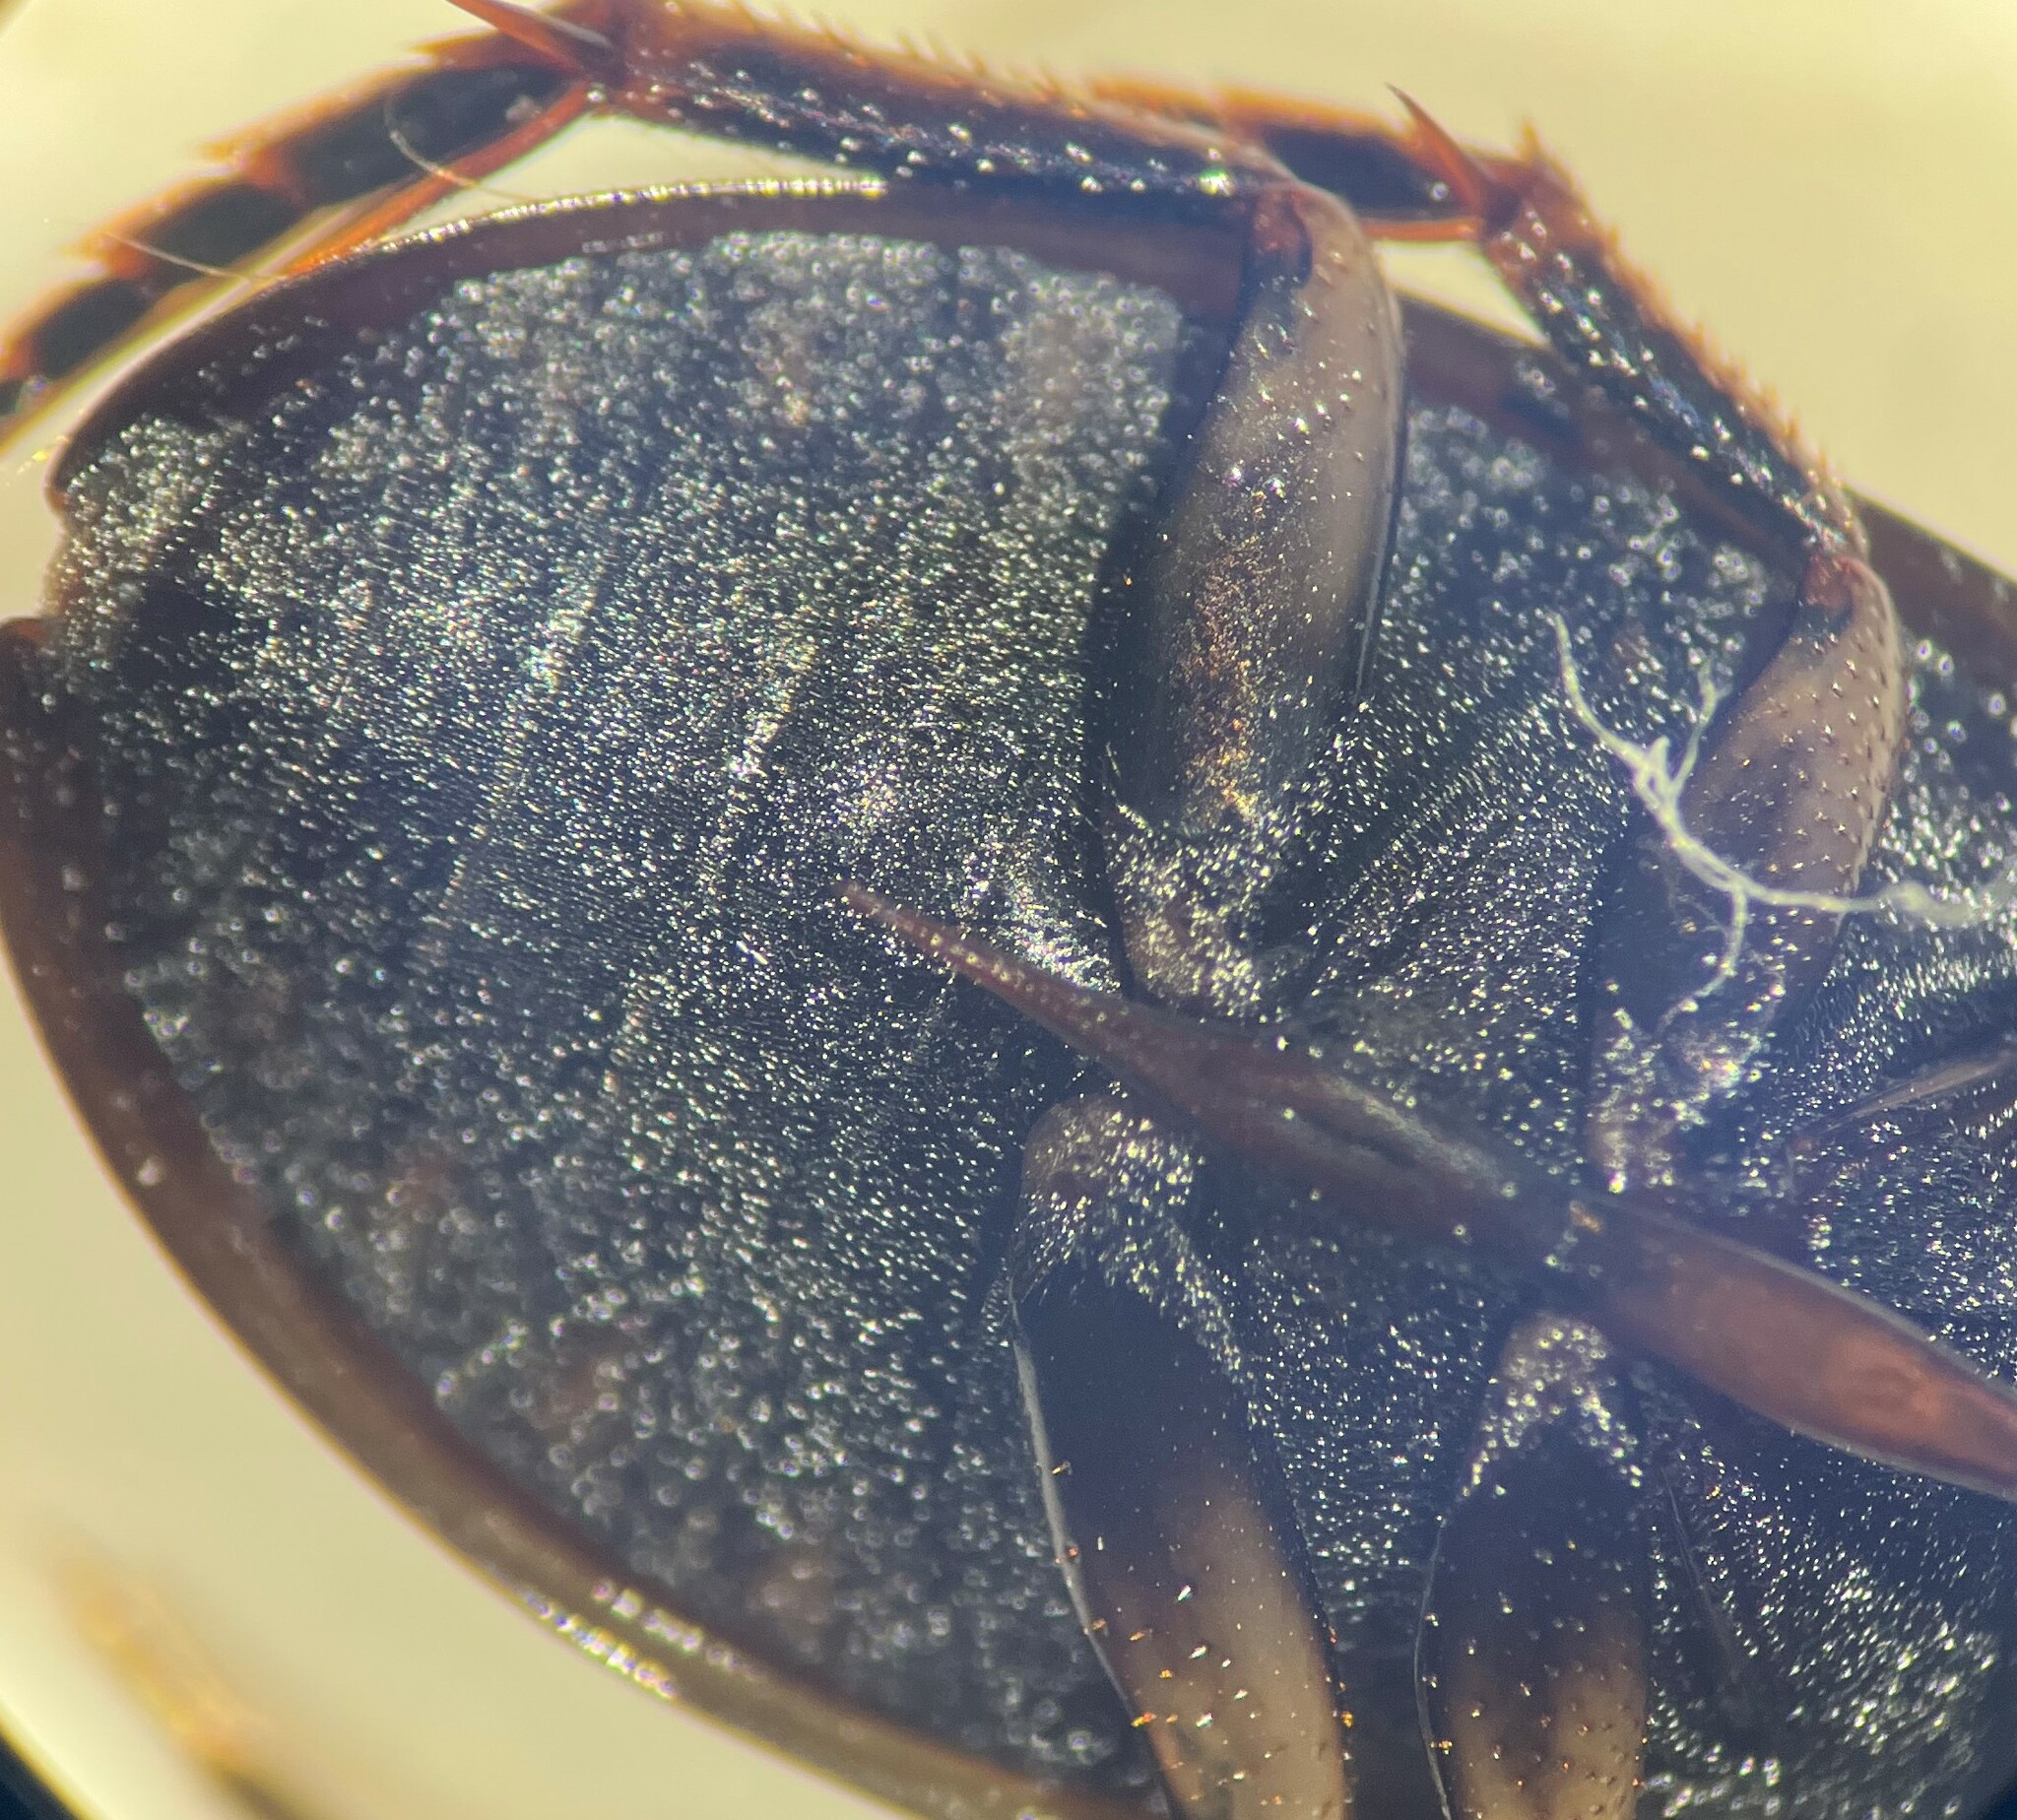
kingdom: Animalia
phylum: Arthropoda
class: Insecta
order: Coleoptera
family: Hydrophilidae
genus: Tropisternus
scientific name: Tropisternus columbianus
